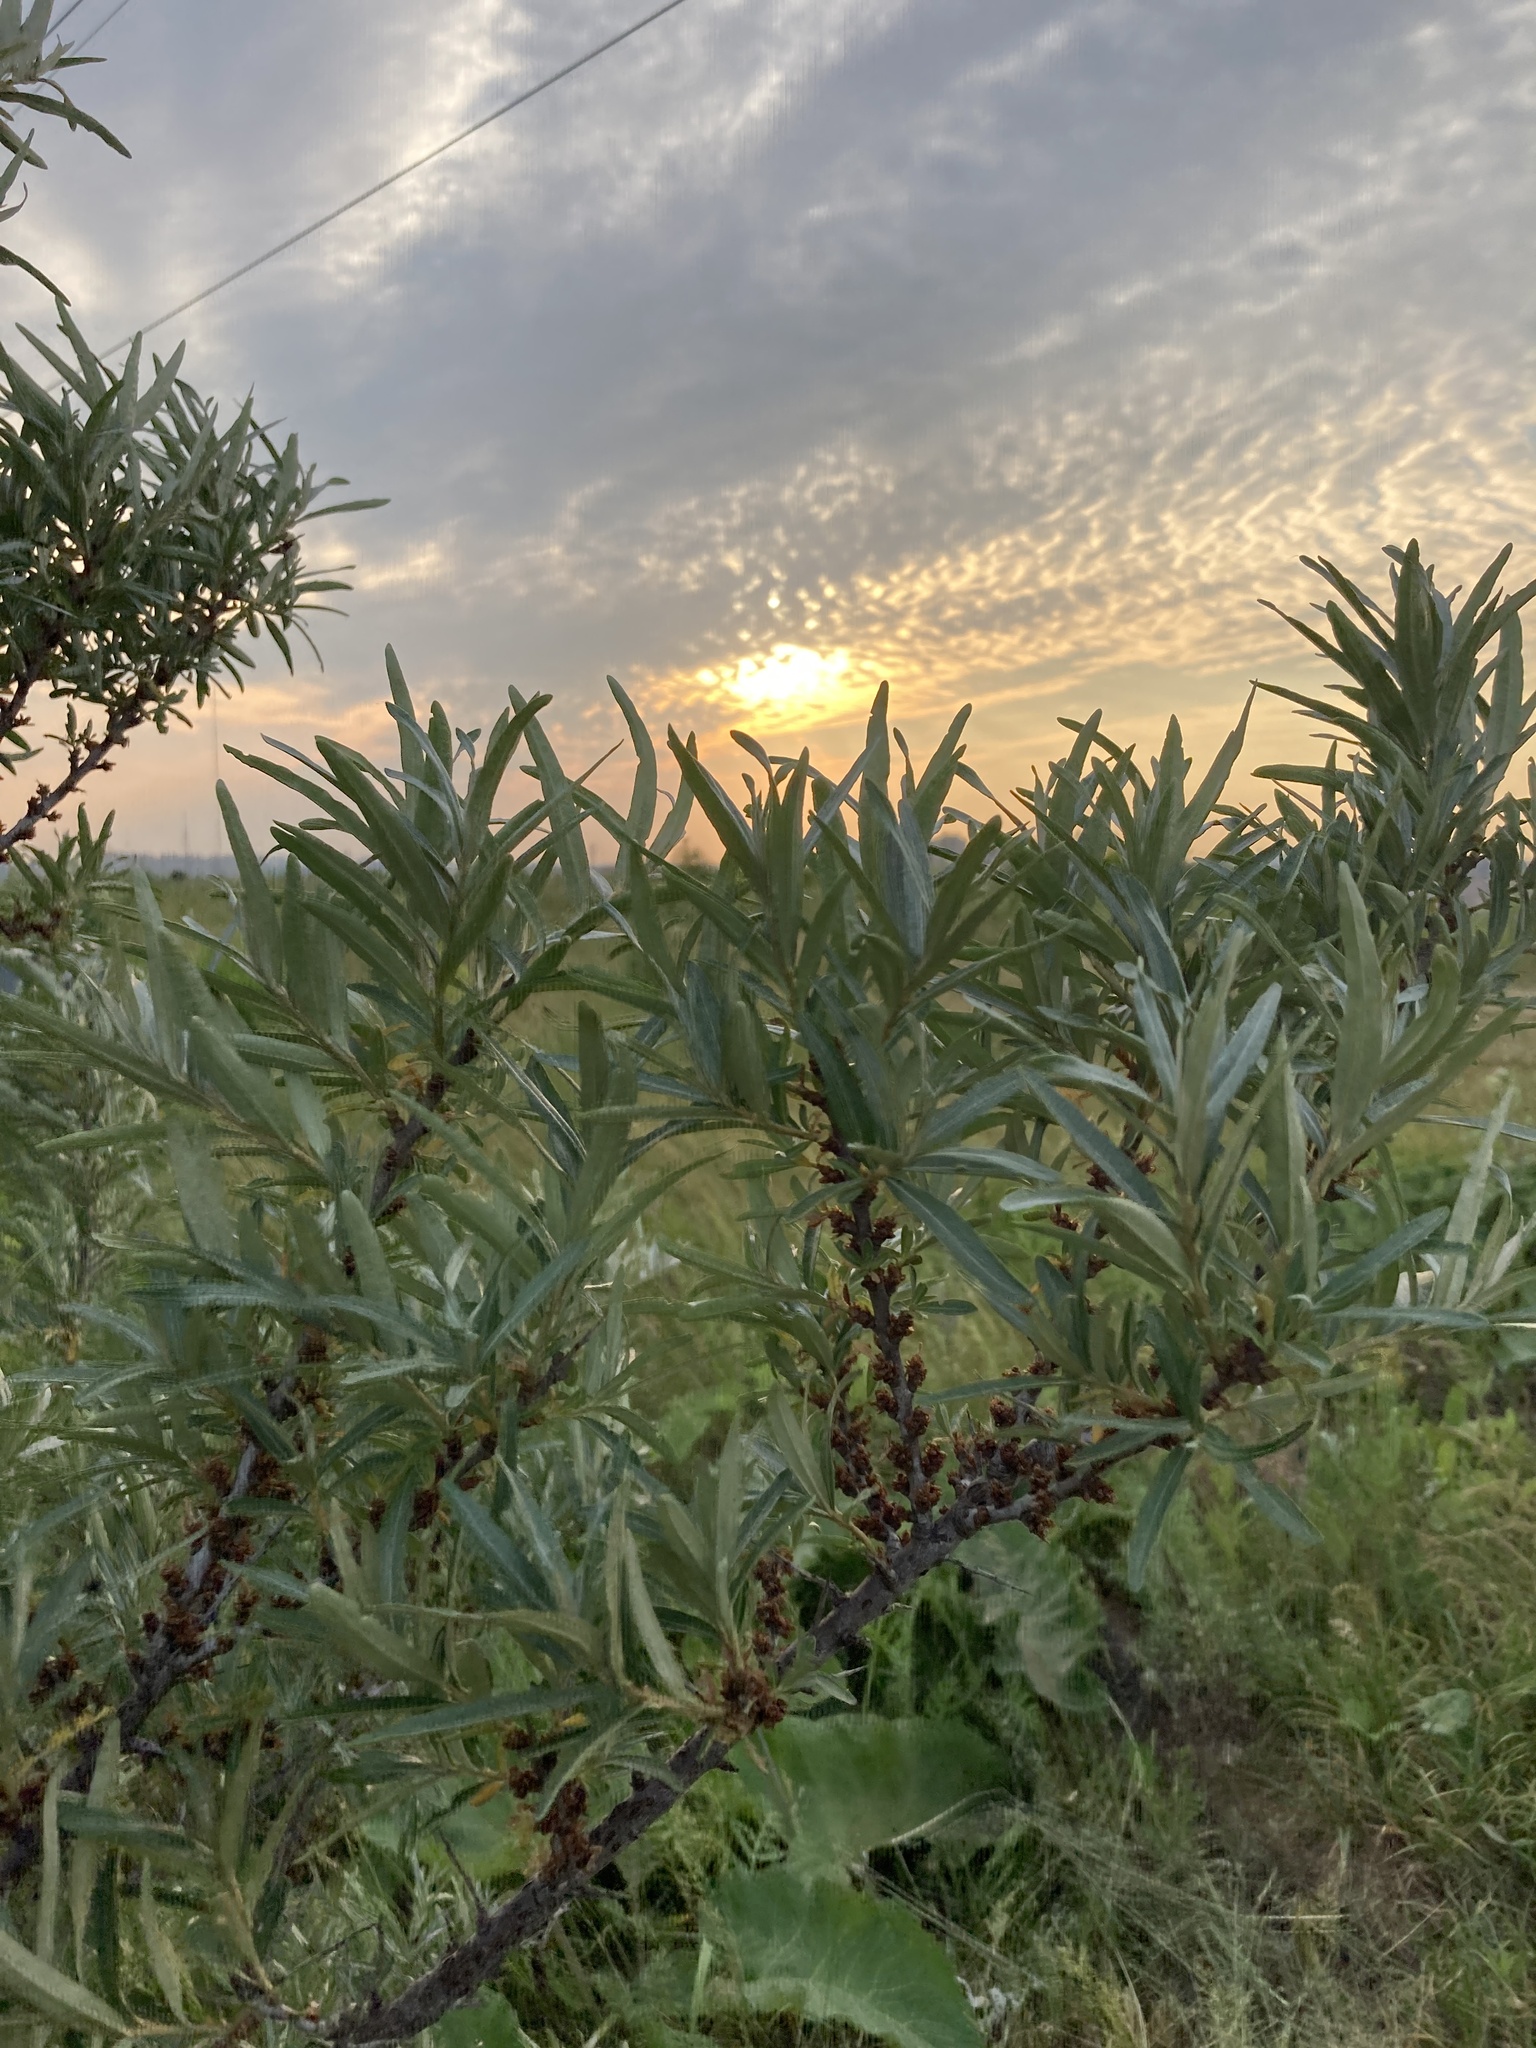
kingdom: Plantae
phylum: Tracheophyta
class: Magnoliopsida
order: Rosales
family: Elaeagnaceae
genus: Hippophae
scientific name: Hippophae rhamnoides
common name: Sea-buckthorn
